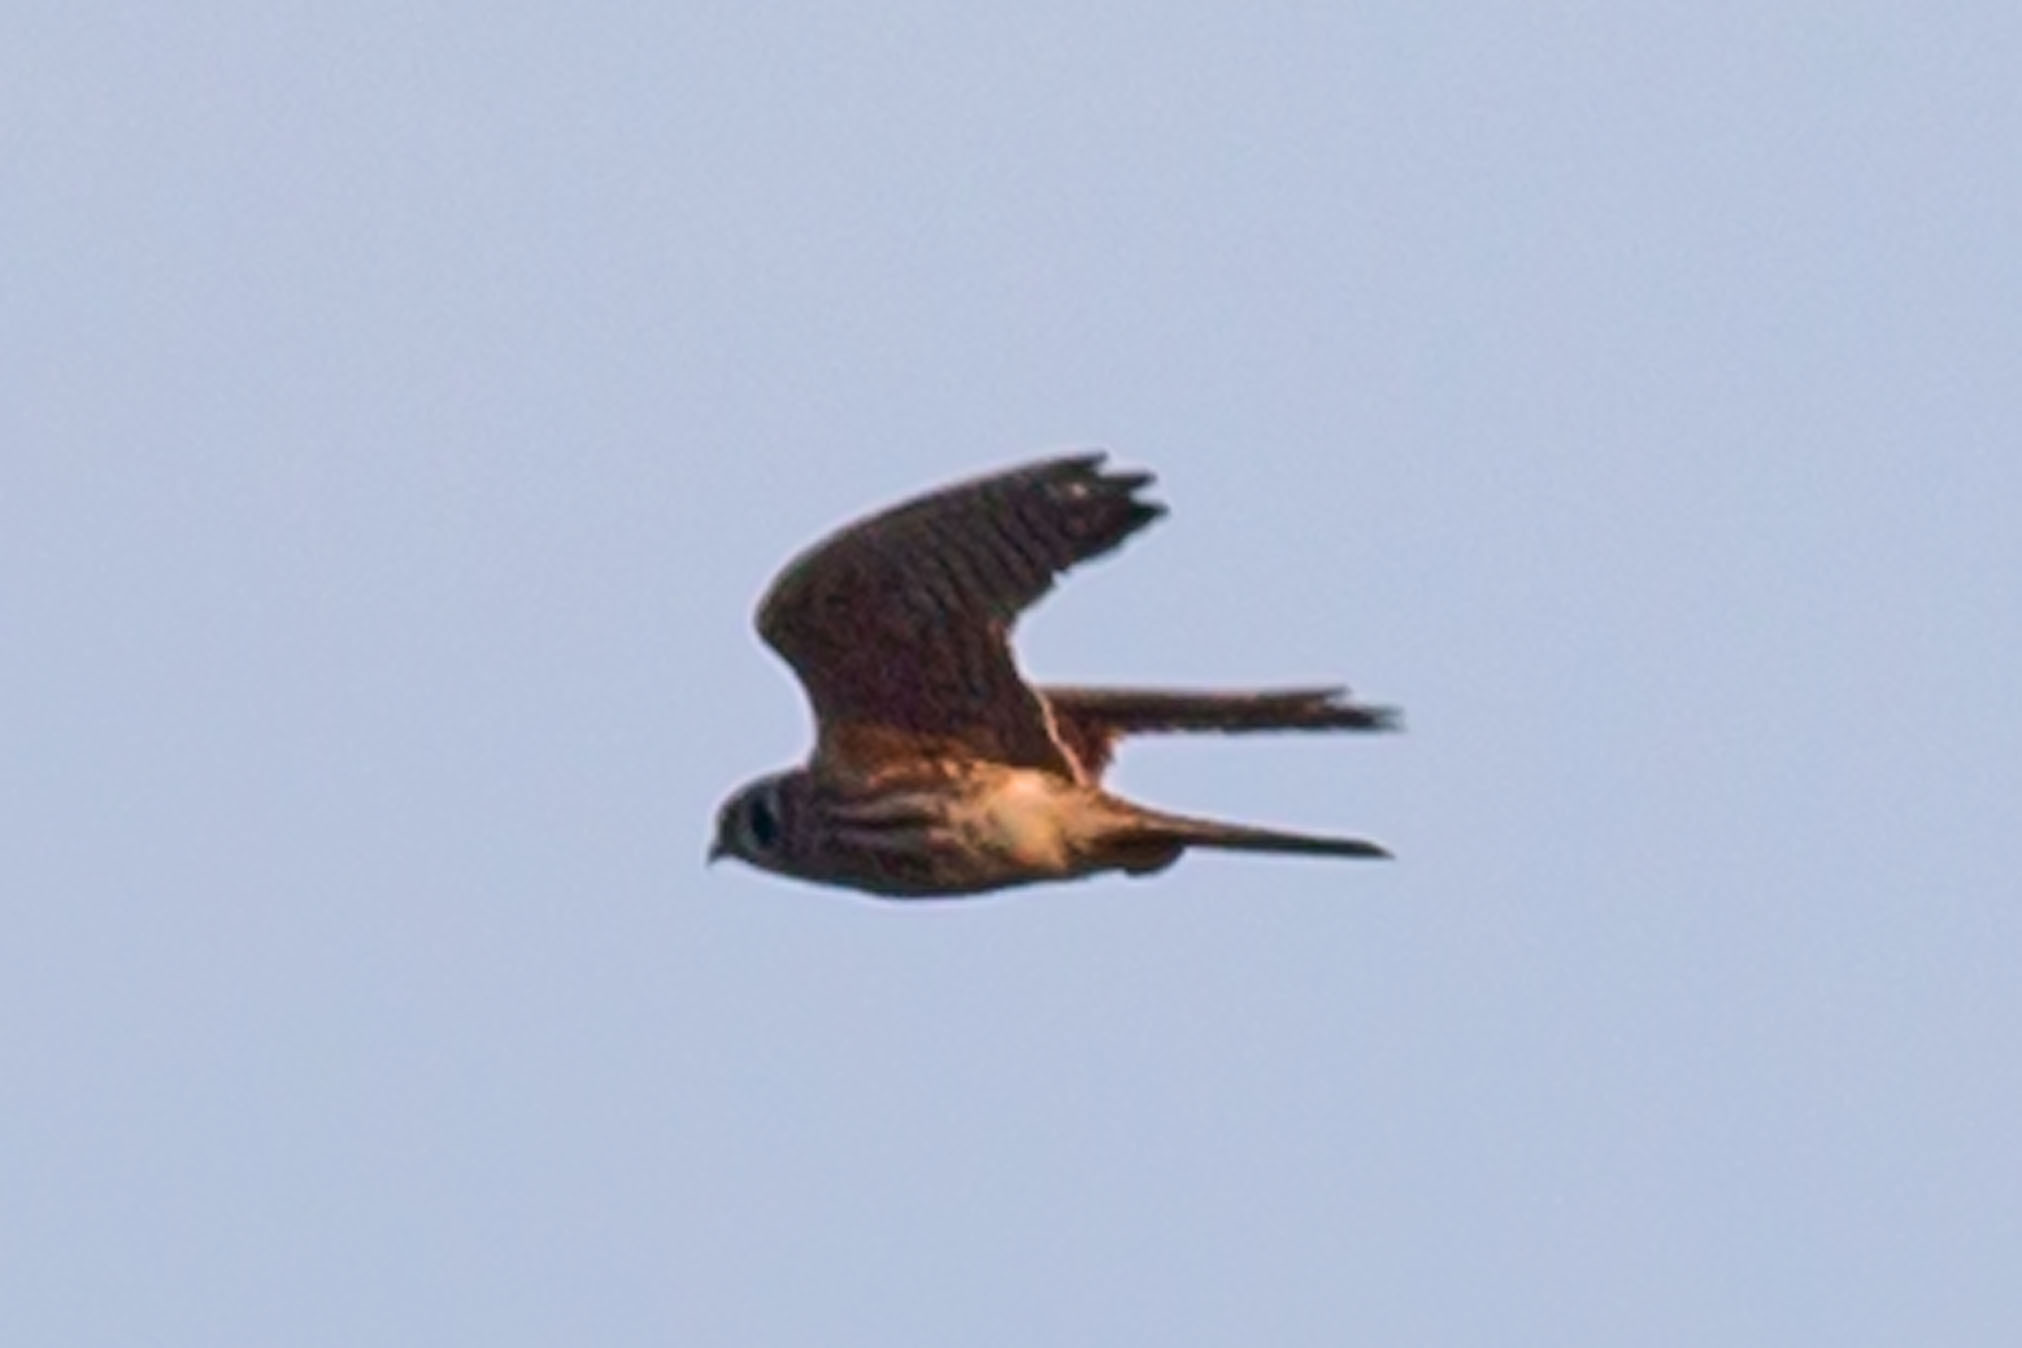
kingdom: Animalia
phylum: Chordata
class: Aves
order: Falconiformes
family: Falconidae
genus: Falco
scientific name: Falco sparverius
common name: American kestrel
